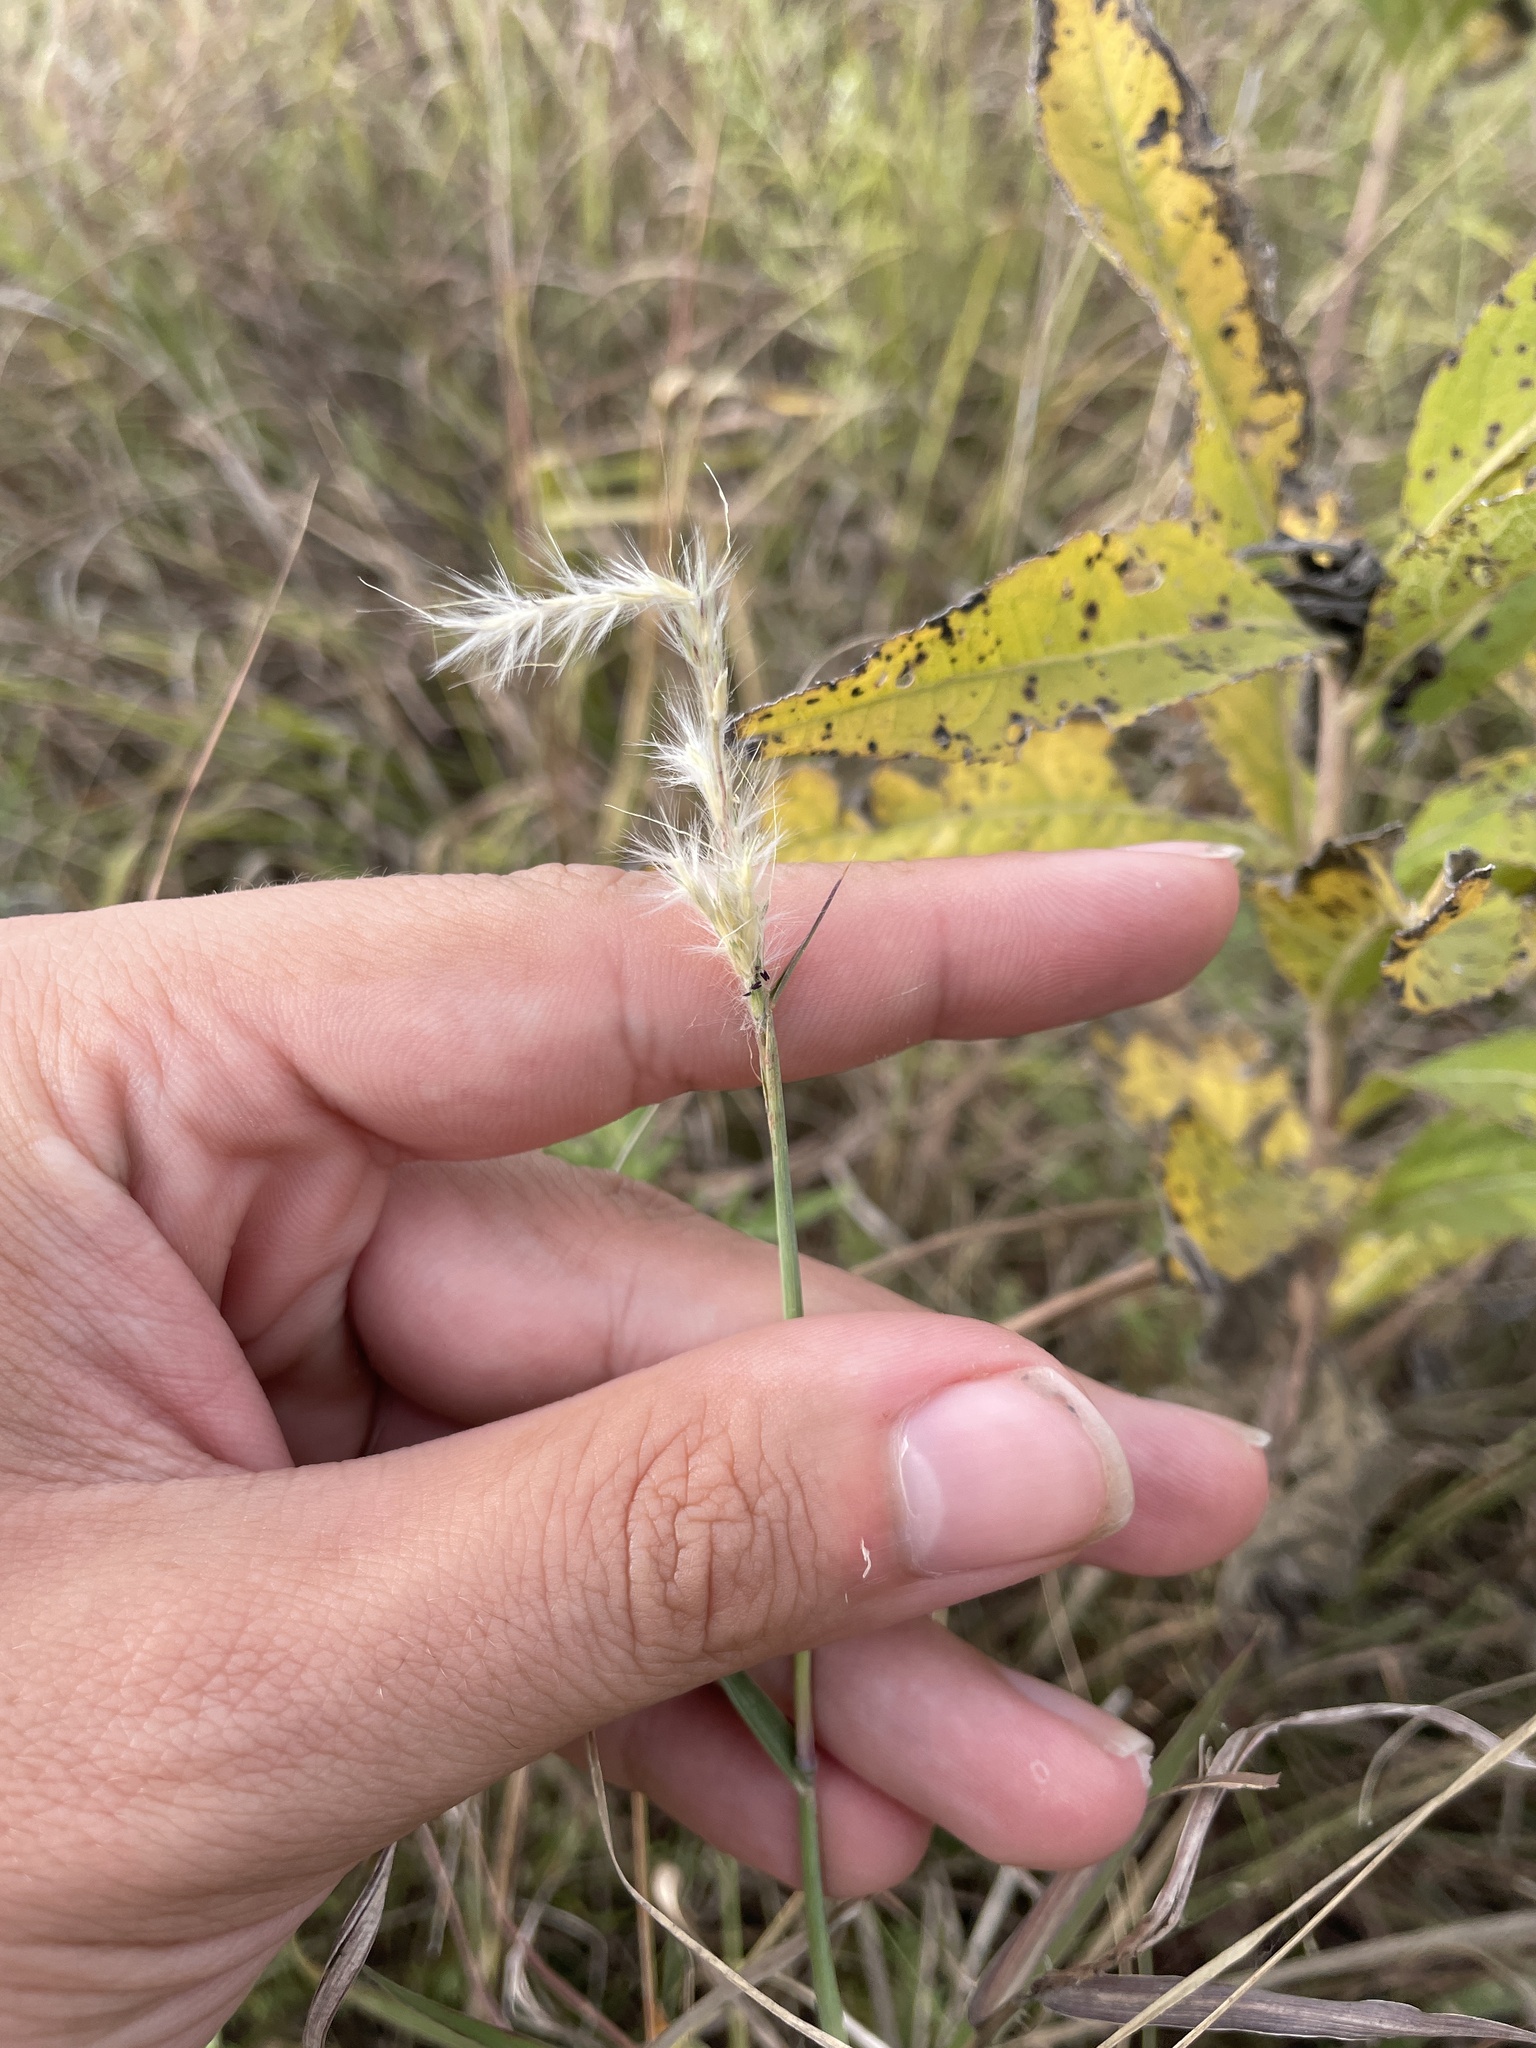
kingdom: Plantae
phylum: Tracheophyta
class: Liliopsida
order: Poales
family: Poaceae
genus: Bothriochloa
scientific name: Bothriochloa torreyana
